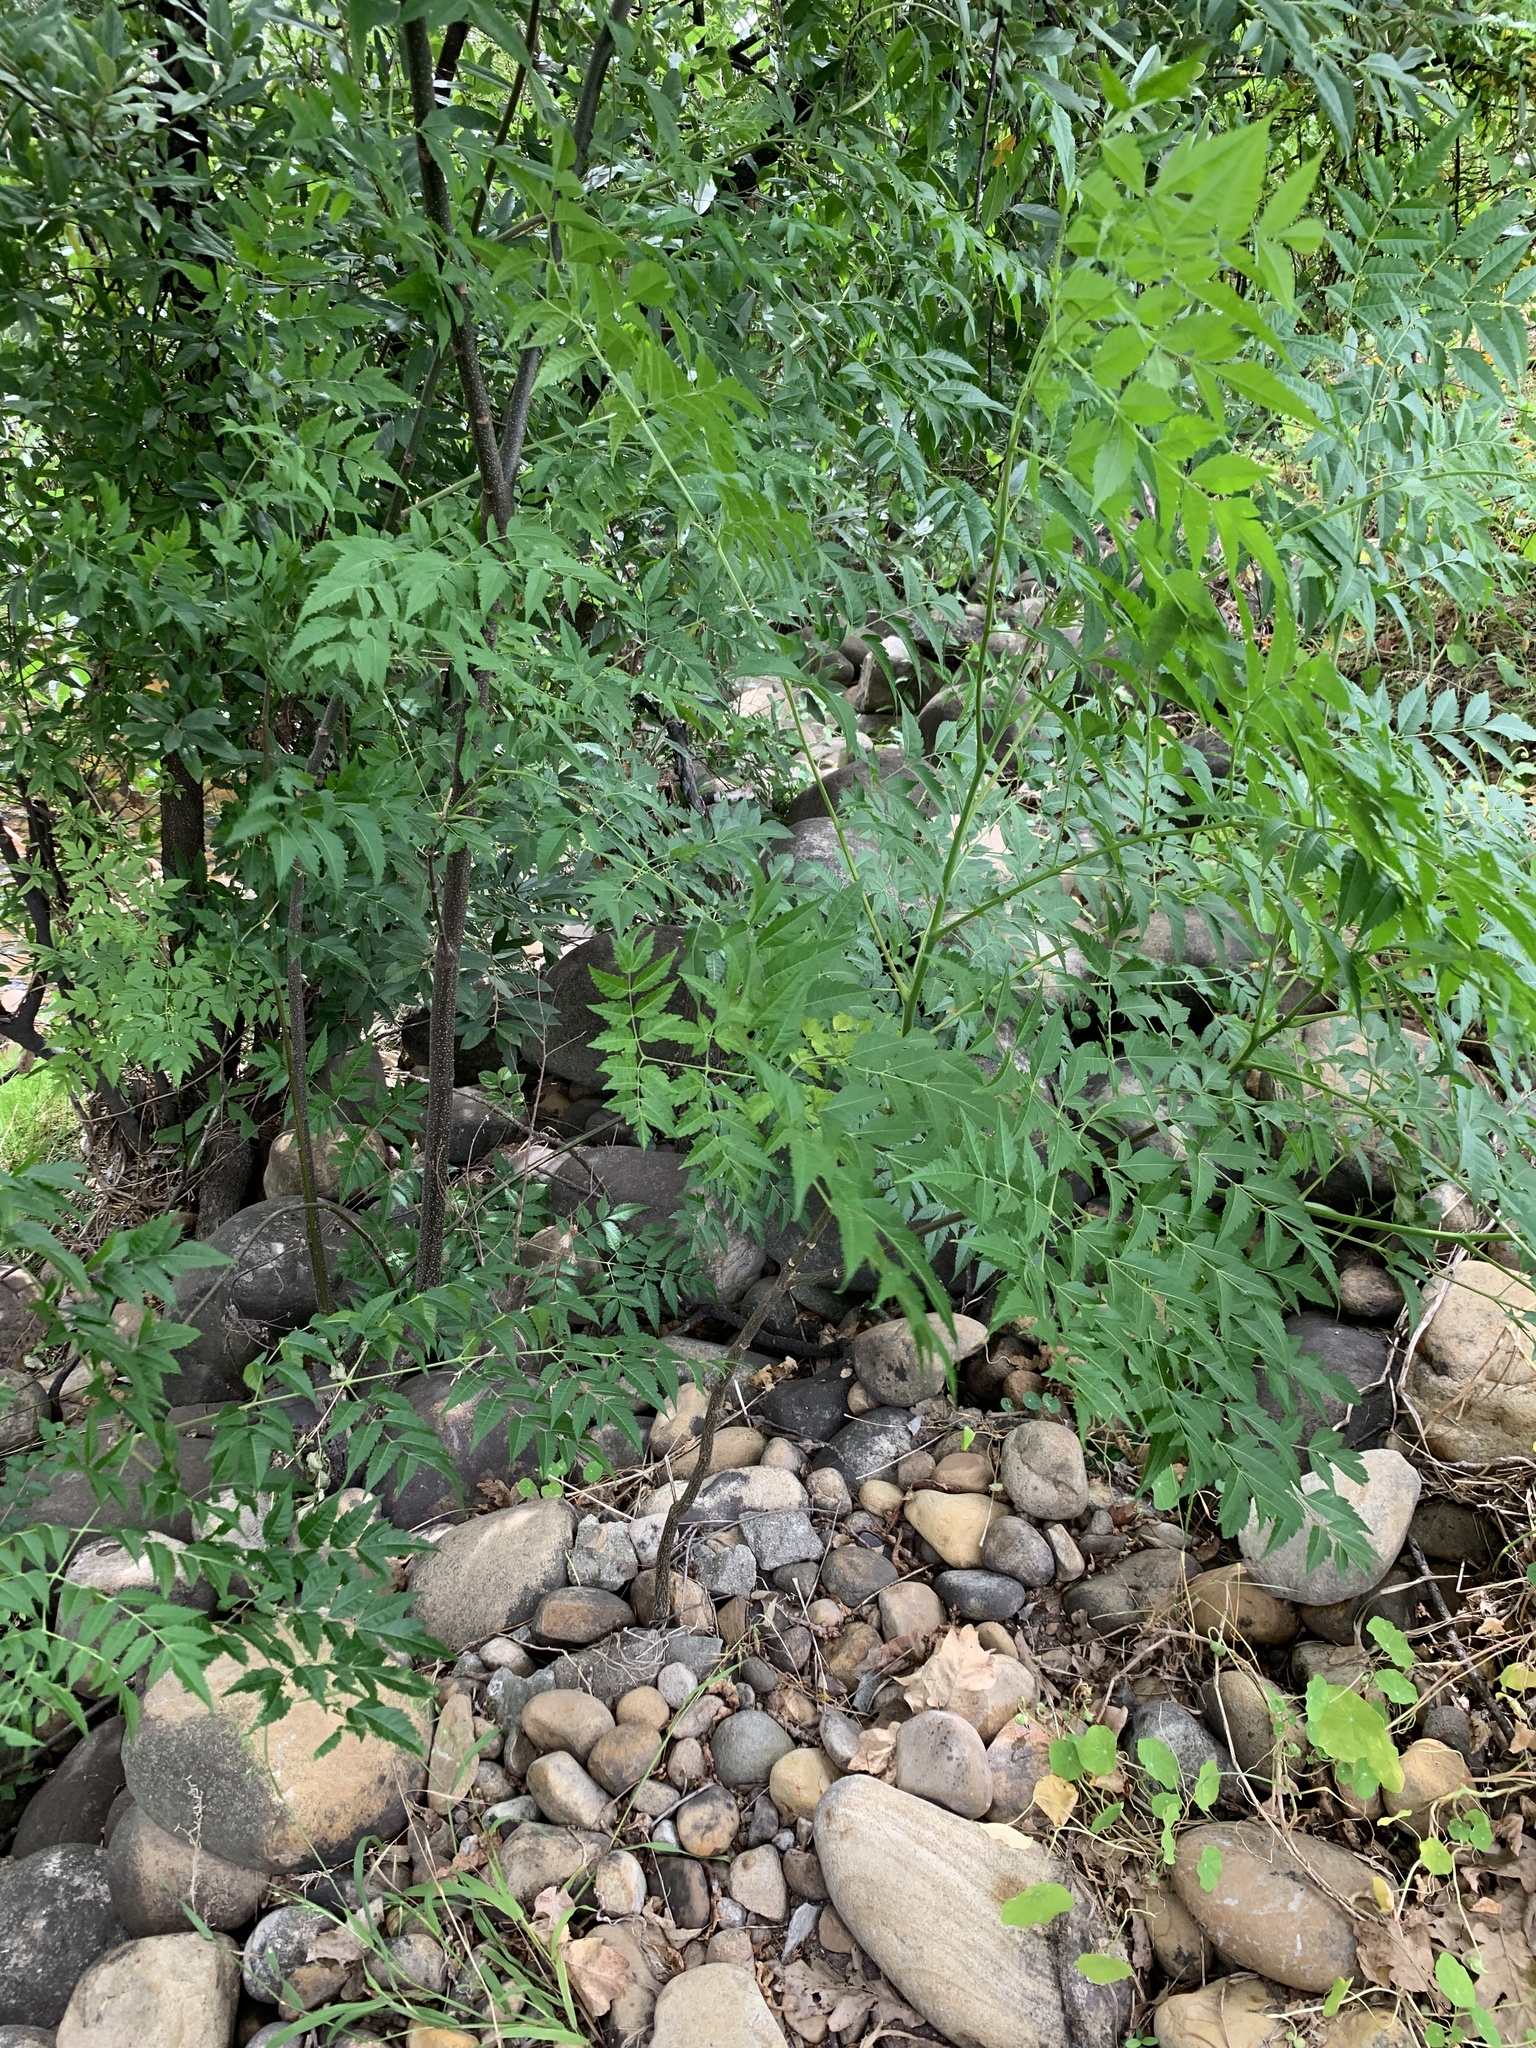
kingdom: Plantae
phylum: Tracheophyta
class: Magnoliopsida
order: Sapindales
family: Meliaceae
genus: Melia
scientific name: Melia azedarach
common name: Chinaberrytree
